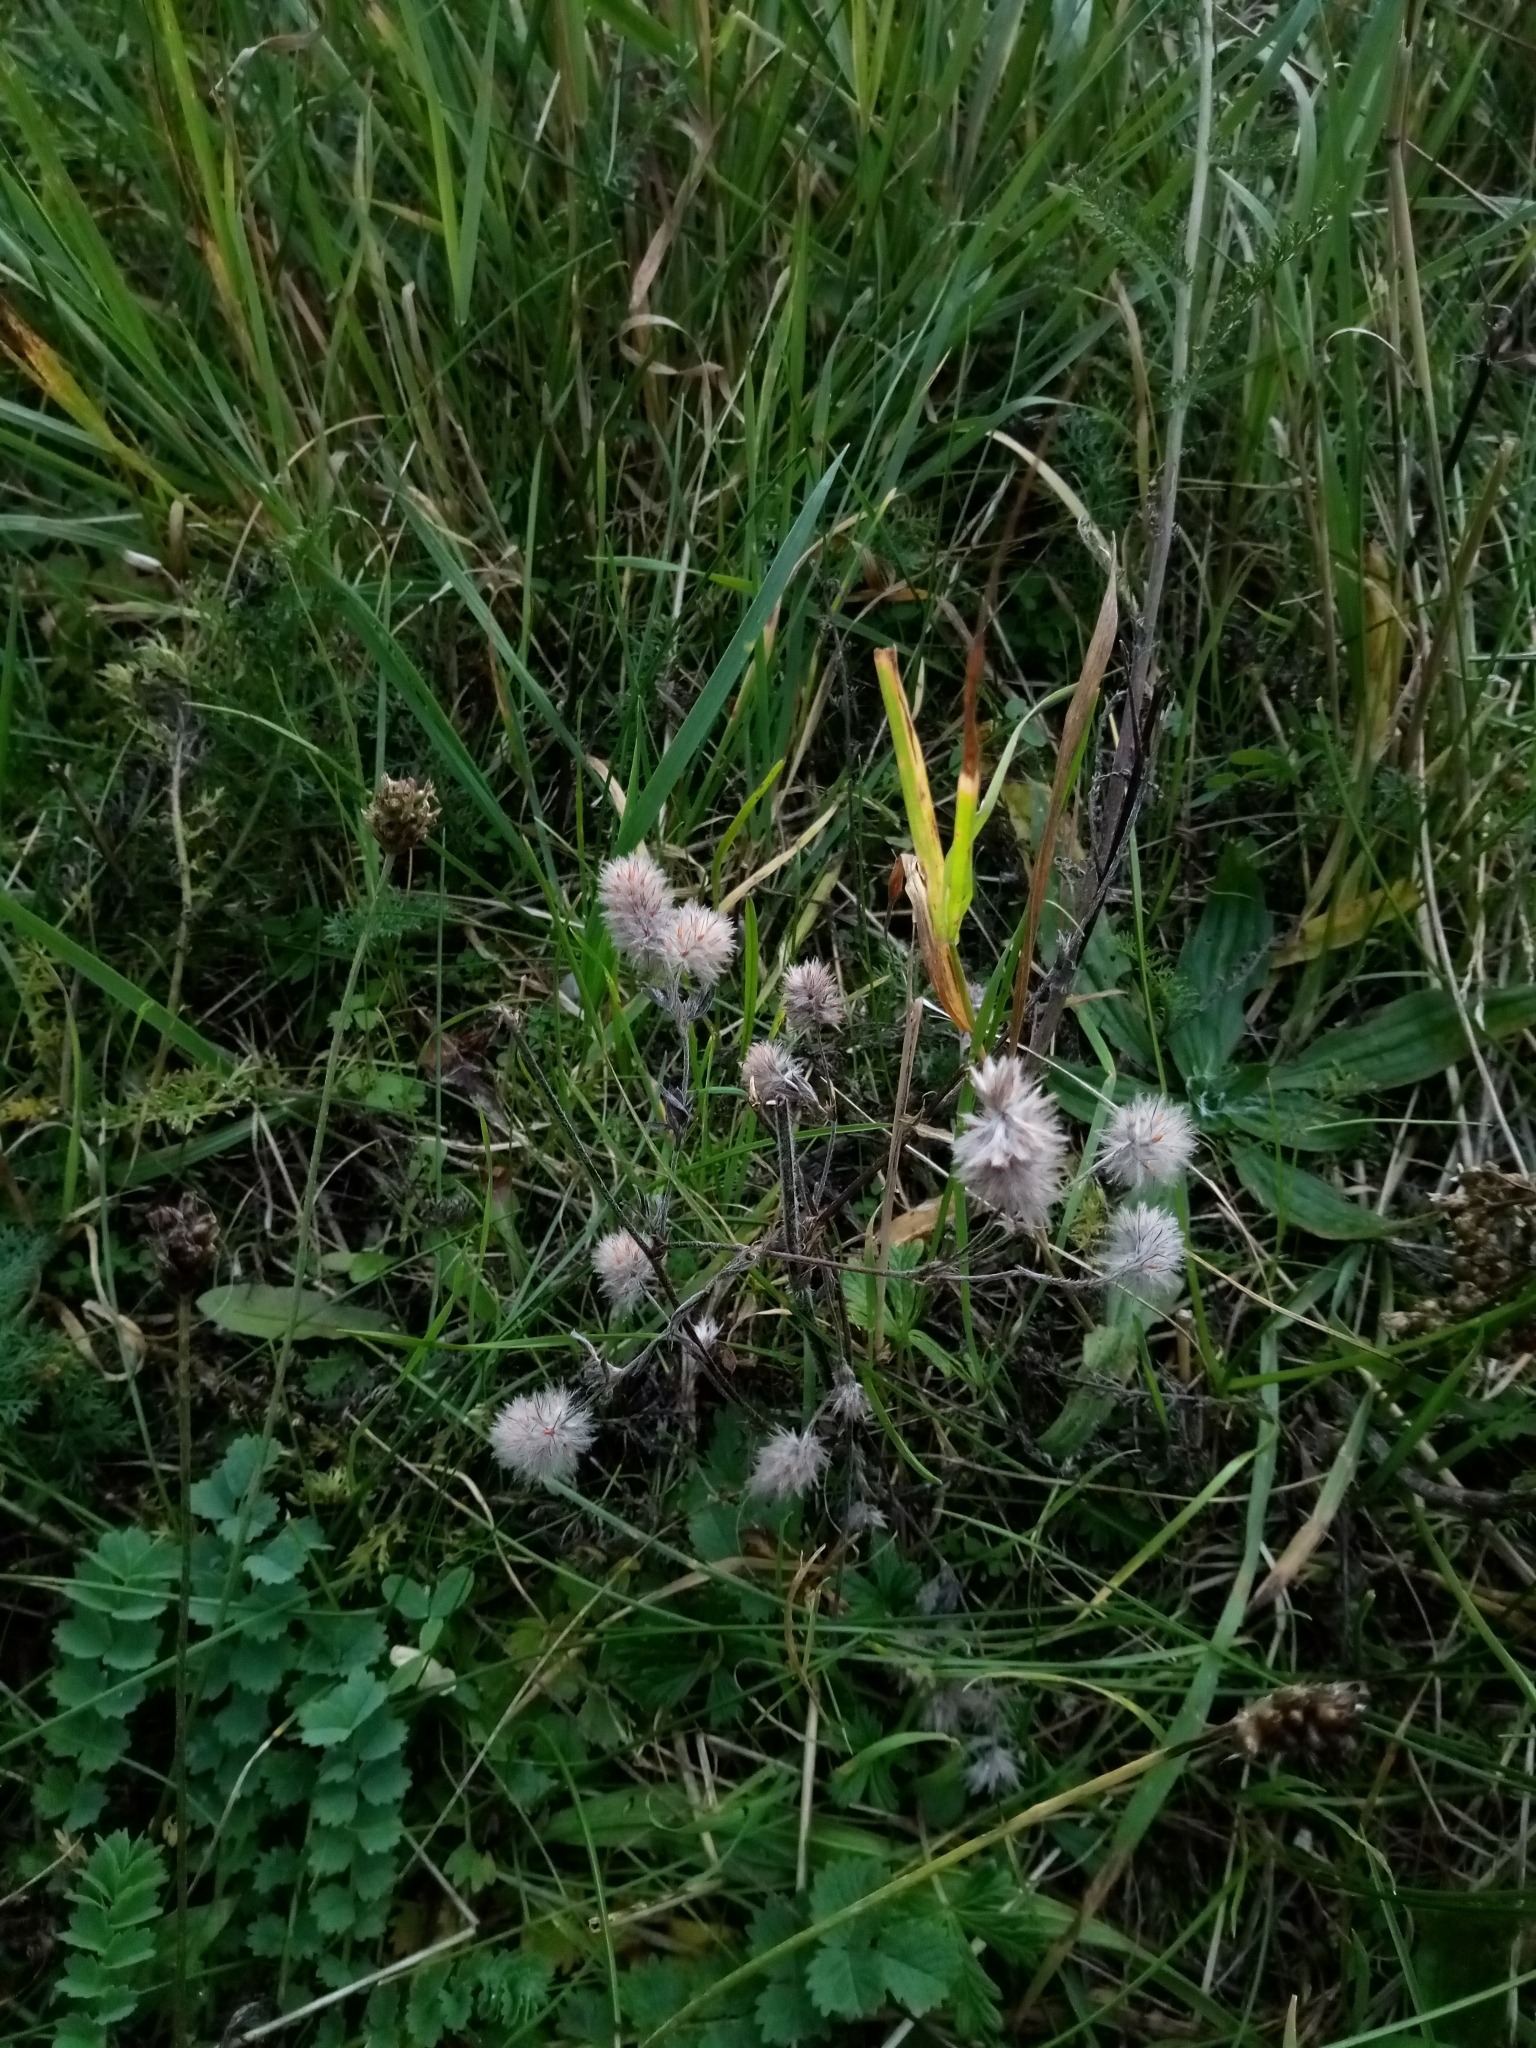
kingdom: Plantae
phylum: Tracheophyta
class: Magnoliopsida
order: Fabales
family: Fabaceae
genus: Trifolium
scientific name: Trifolium arvense
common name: Hare's-foot clover
